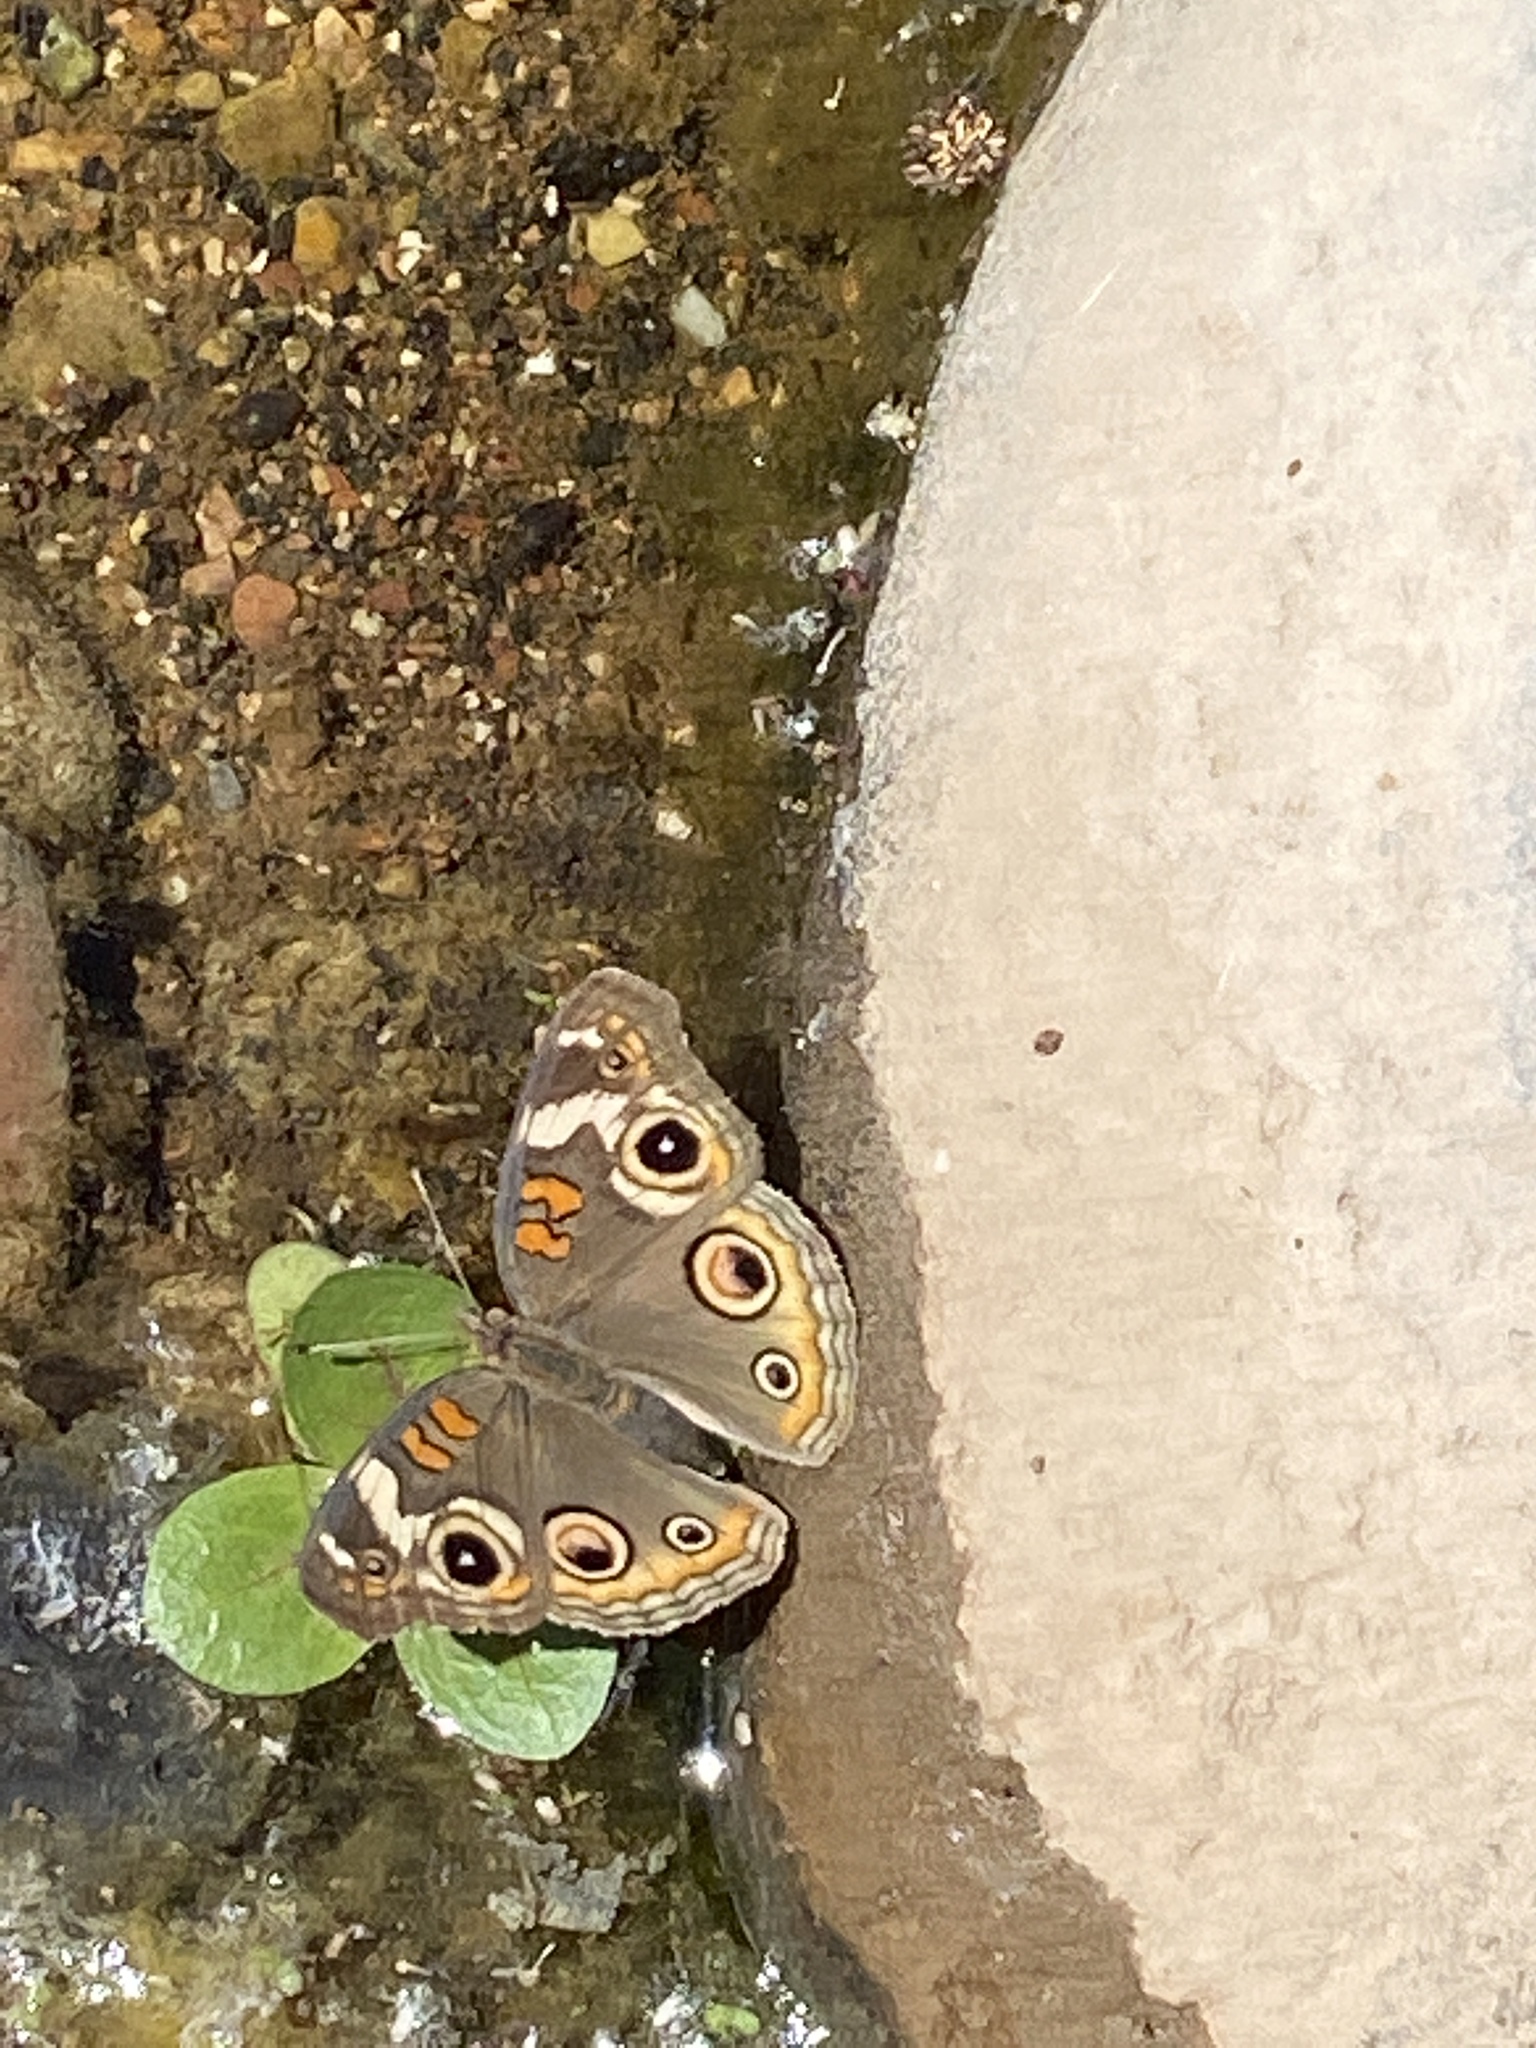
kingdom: Animalia
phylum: Arthropoda
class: Insecta
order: Lepidoptera
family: Nymphalidae
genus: Junonia
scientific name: Junonia grisea
